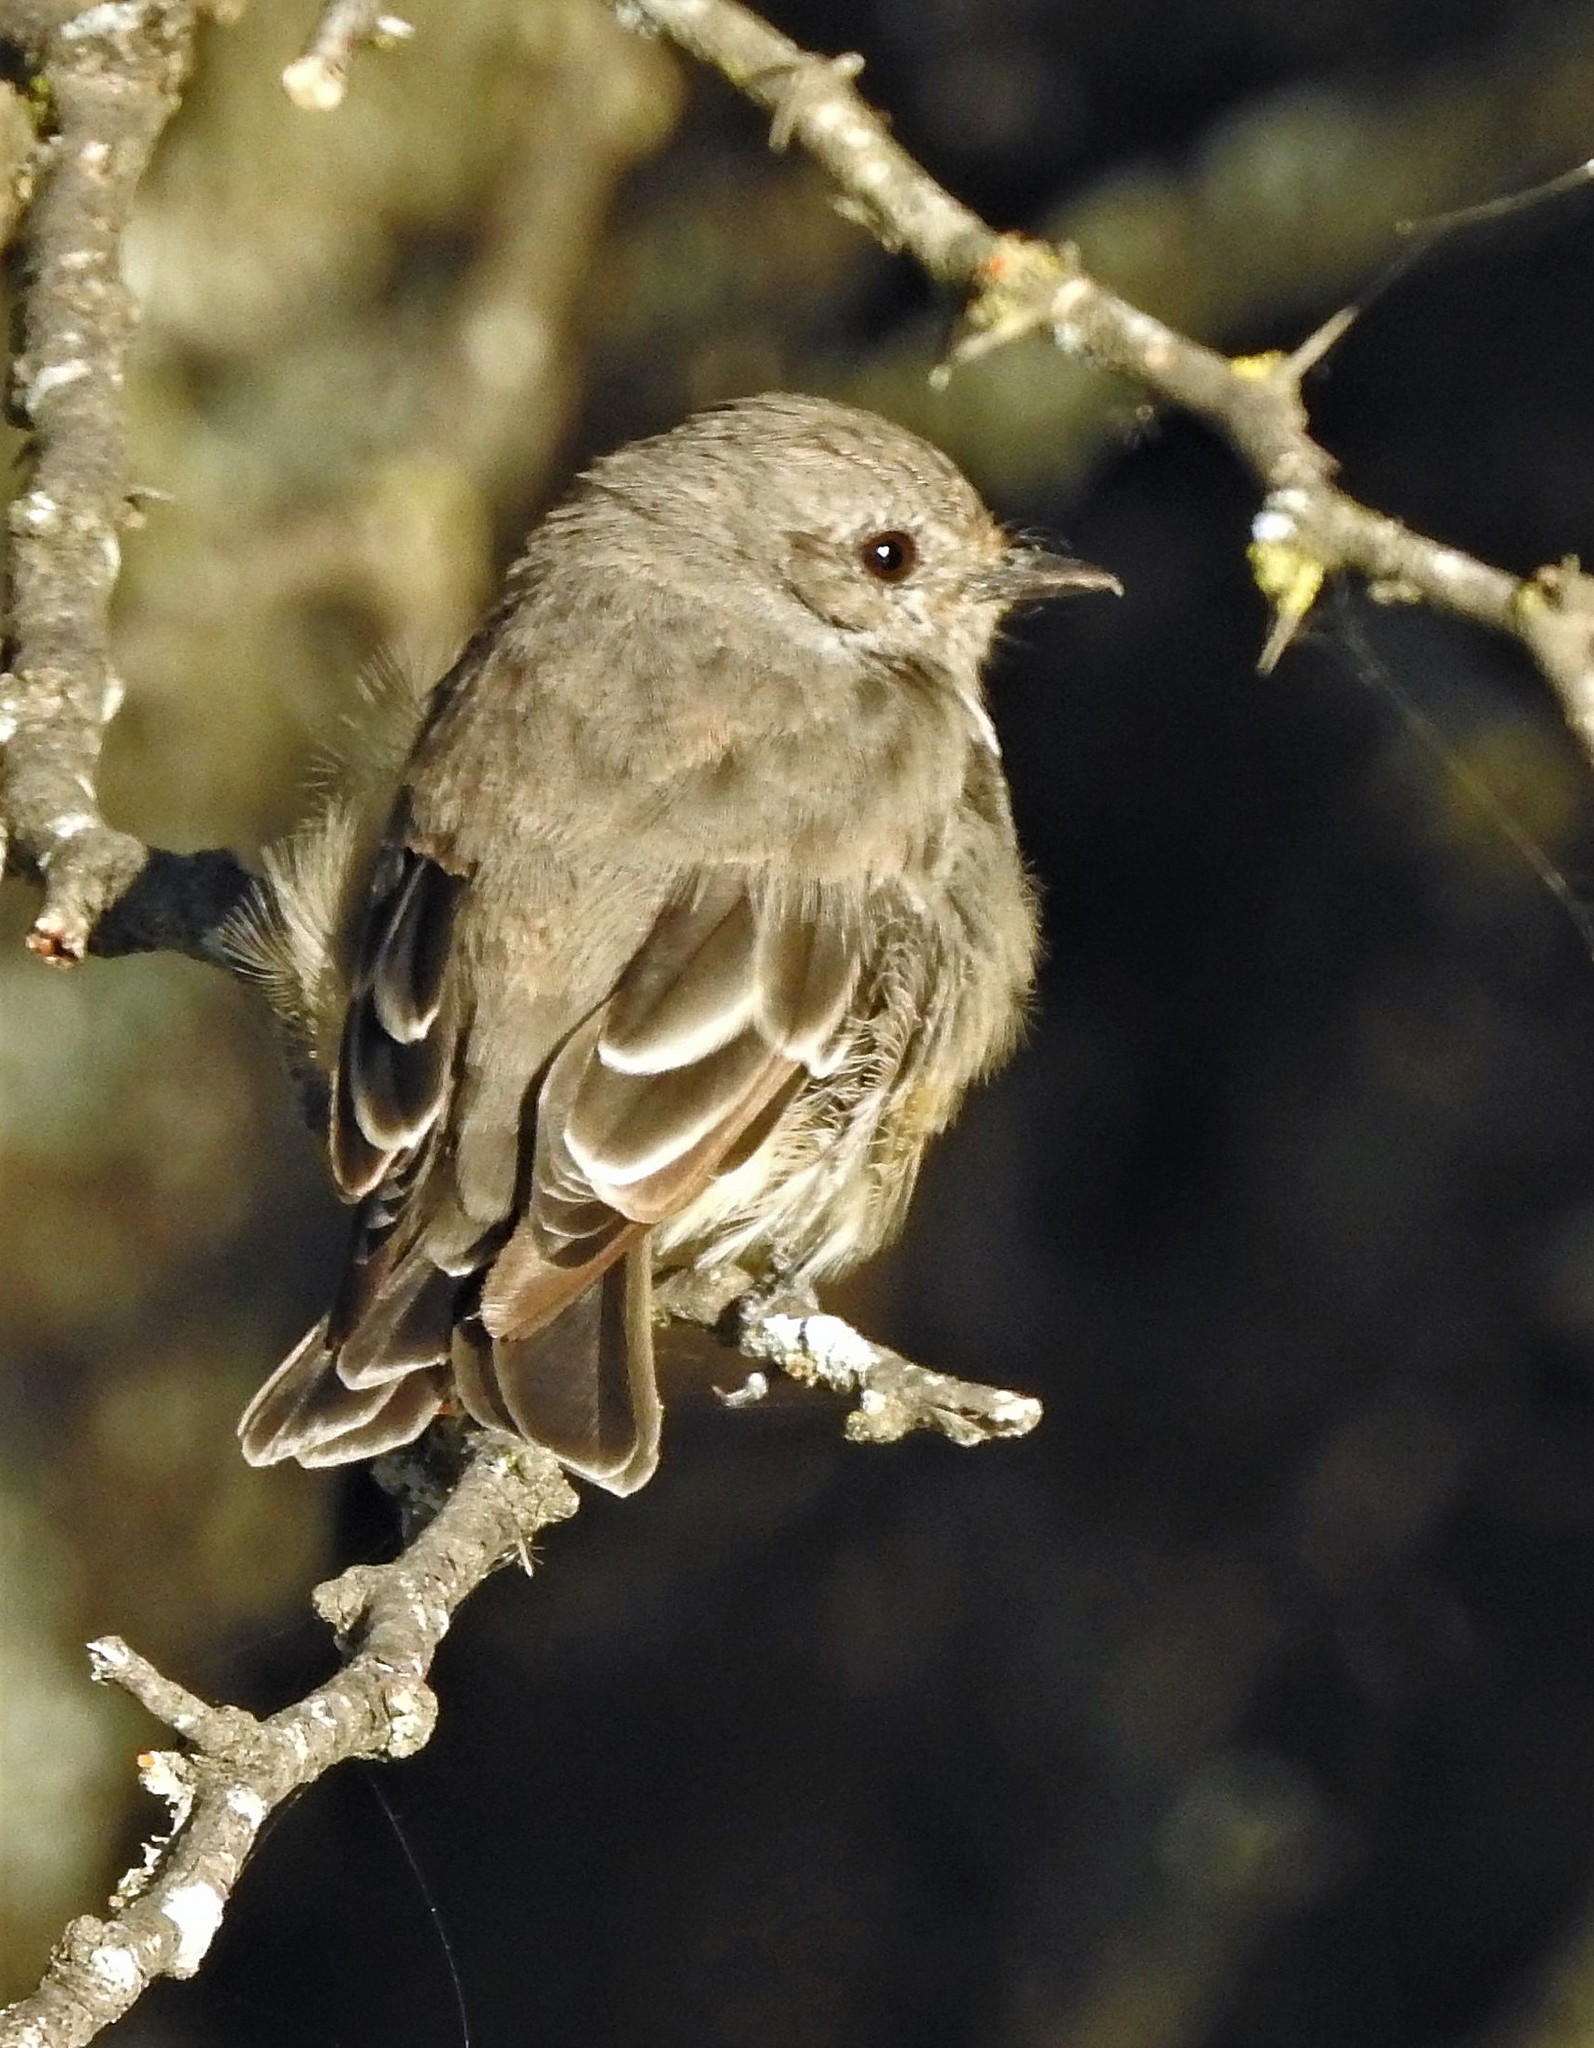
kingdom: Animalia
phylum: Chordata
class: Aves
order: Passeriformes
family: Tyrannidae
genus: Pyrocephalus
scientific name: Pyrocephalus rubinus
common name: Vermilion flycatcher
